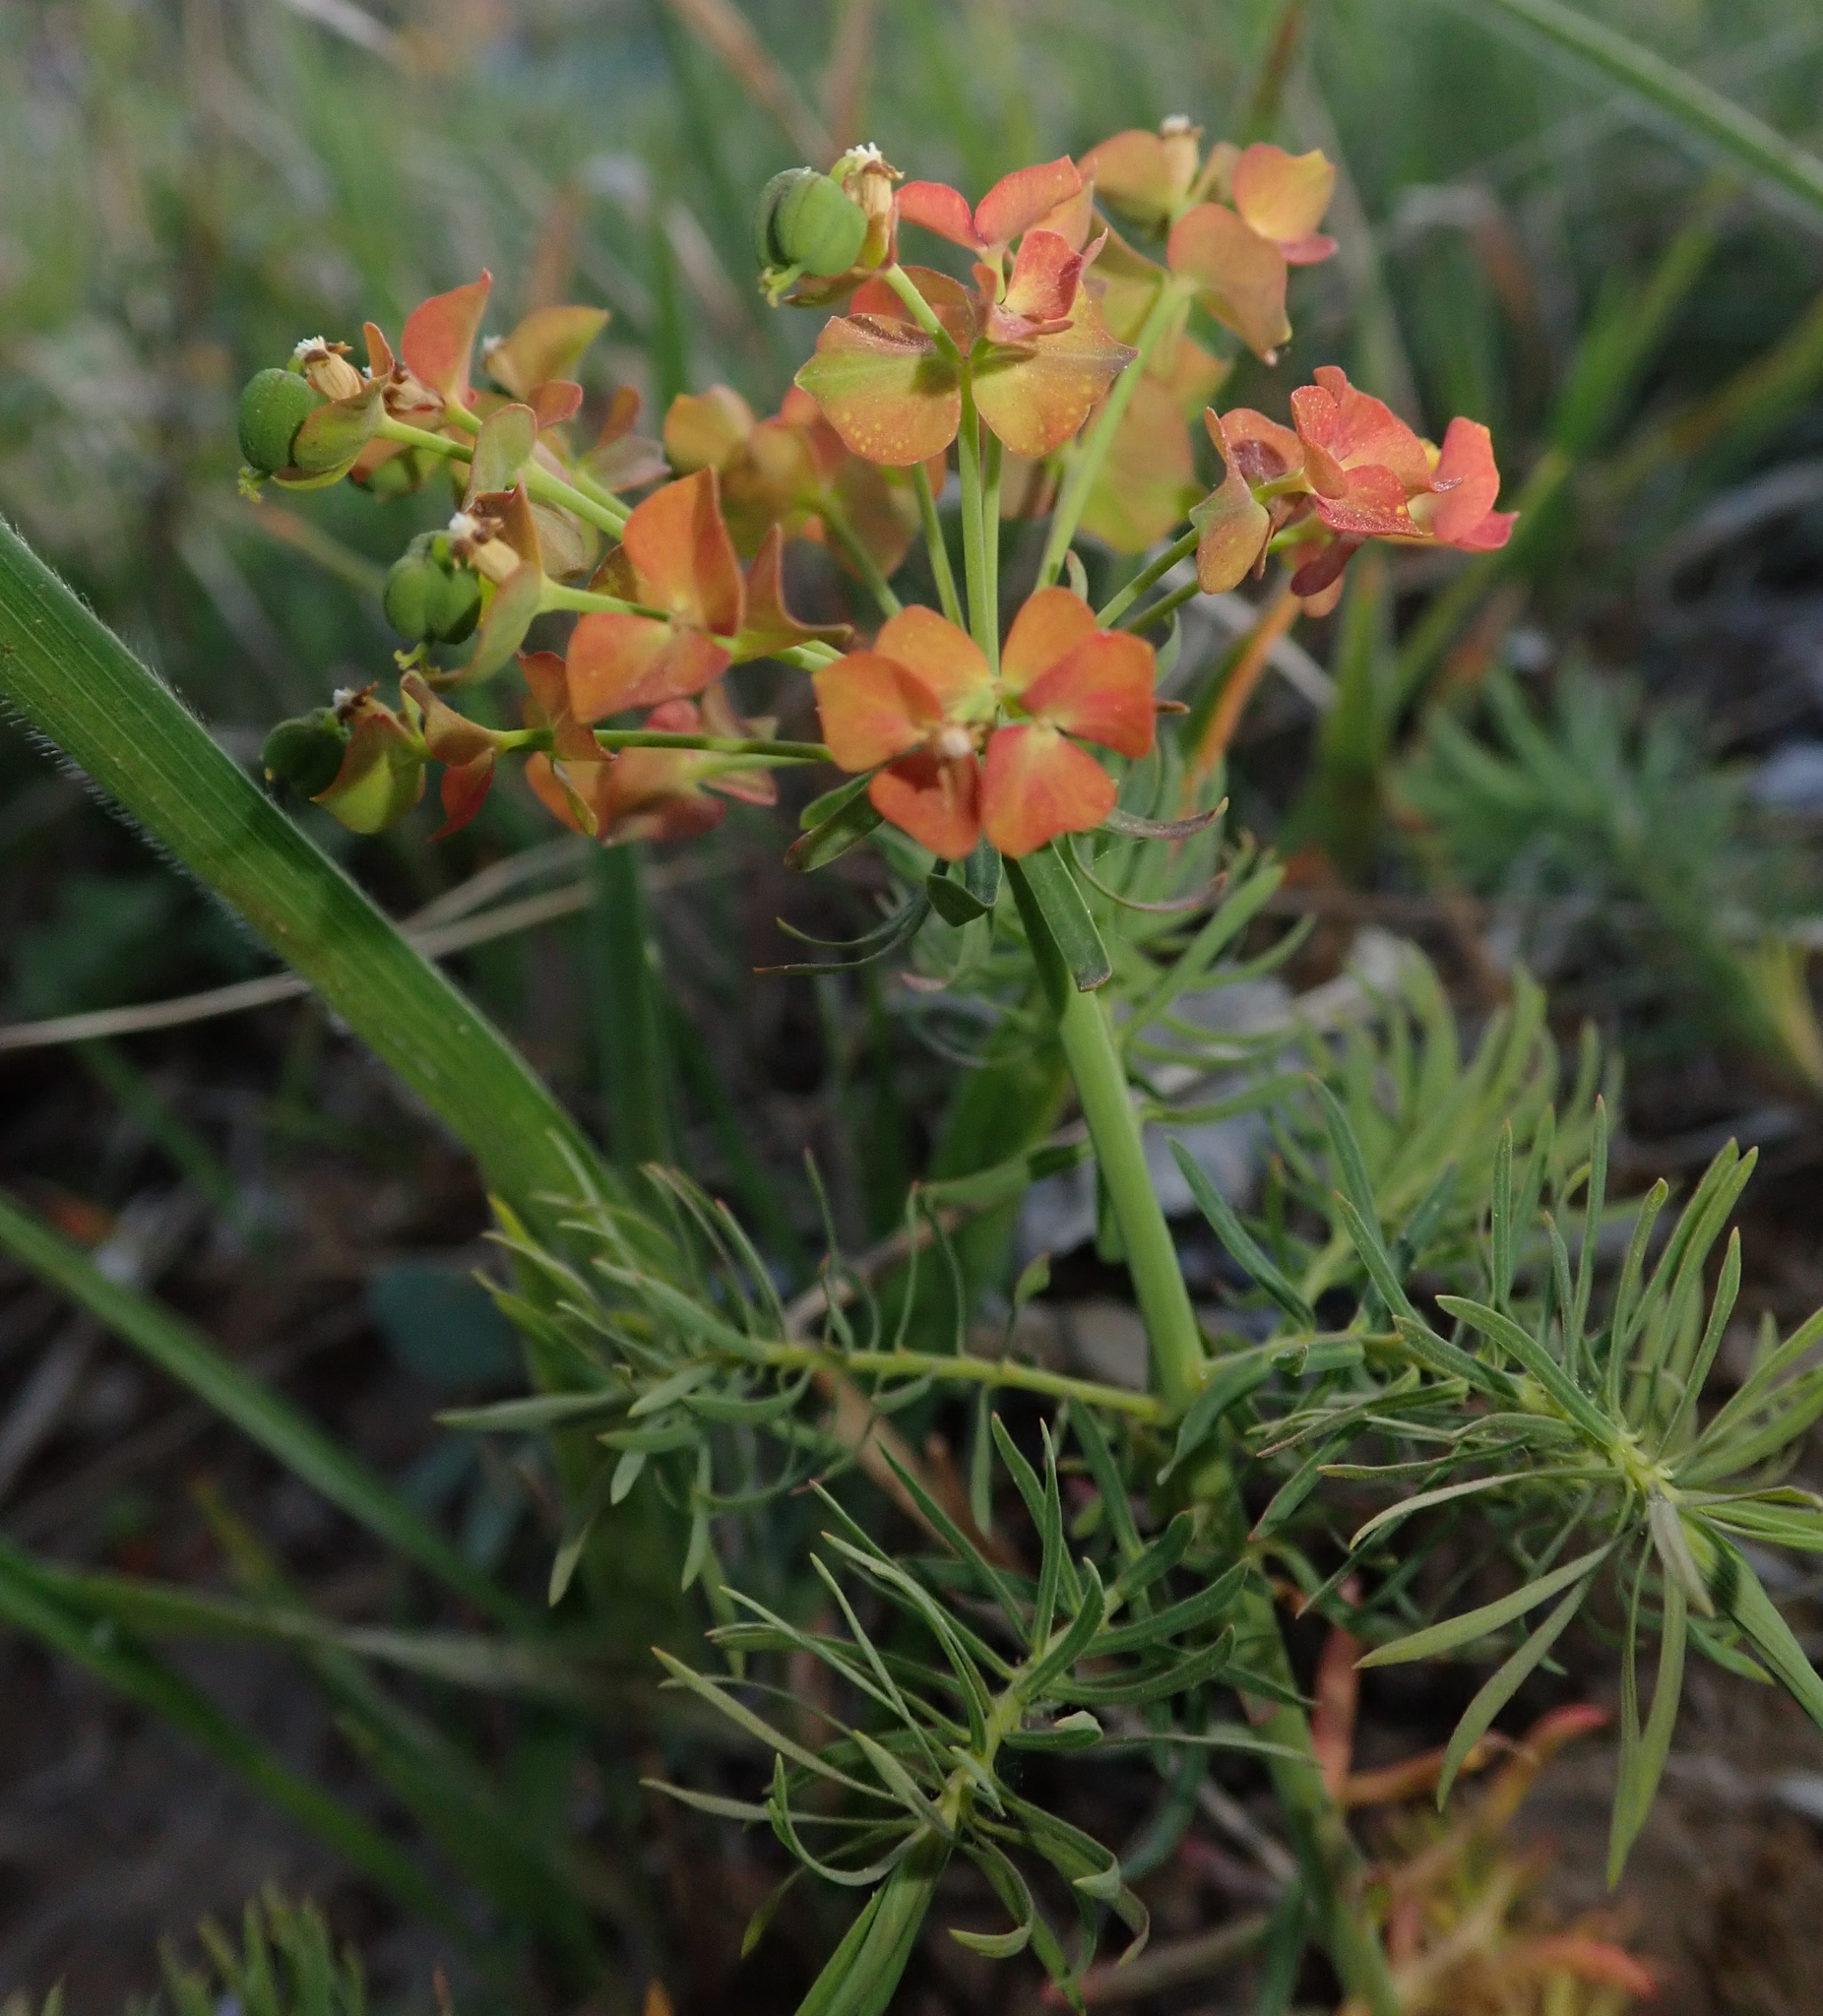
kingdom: Plantae
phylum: Tracheophyta
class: Magnoliopsida
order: Malpighiales
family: Euphorbiaceae
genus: Euphorbia
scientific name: Euphorbia cyparissias
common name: Cypress spurge
